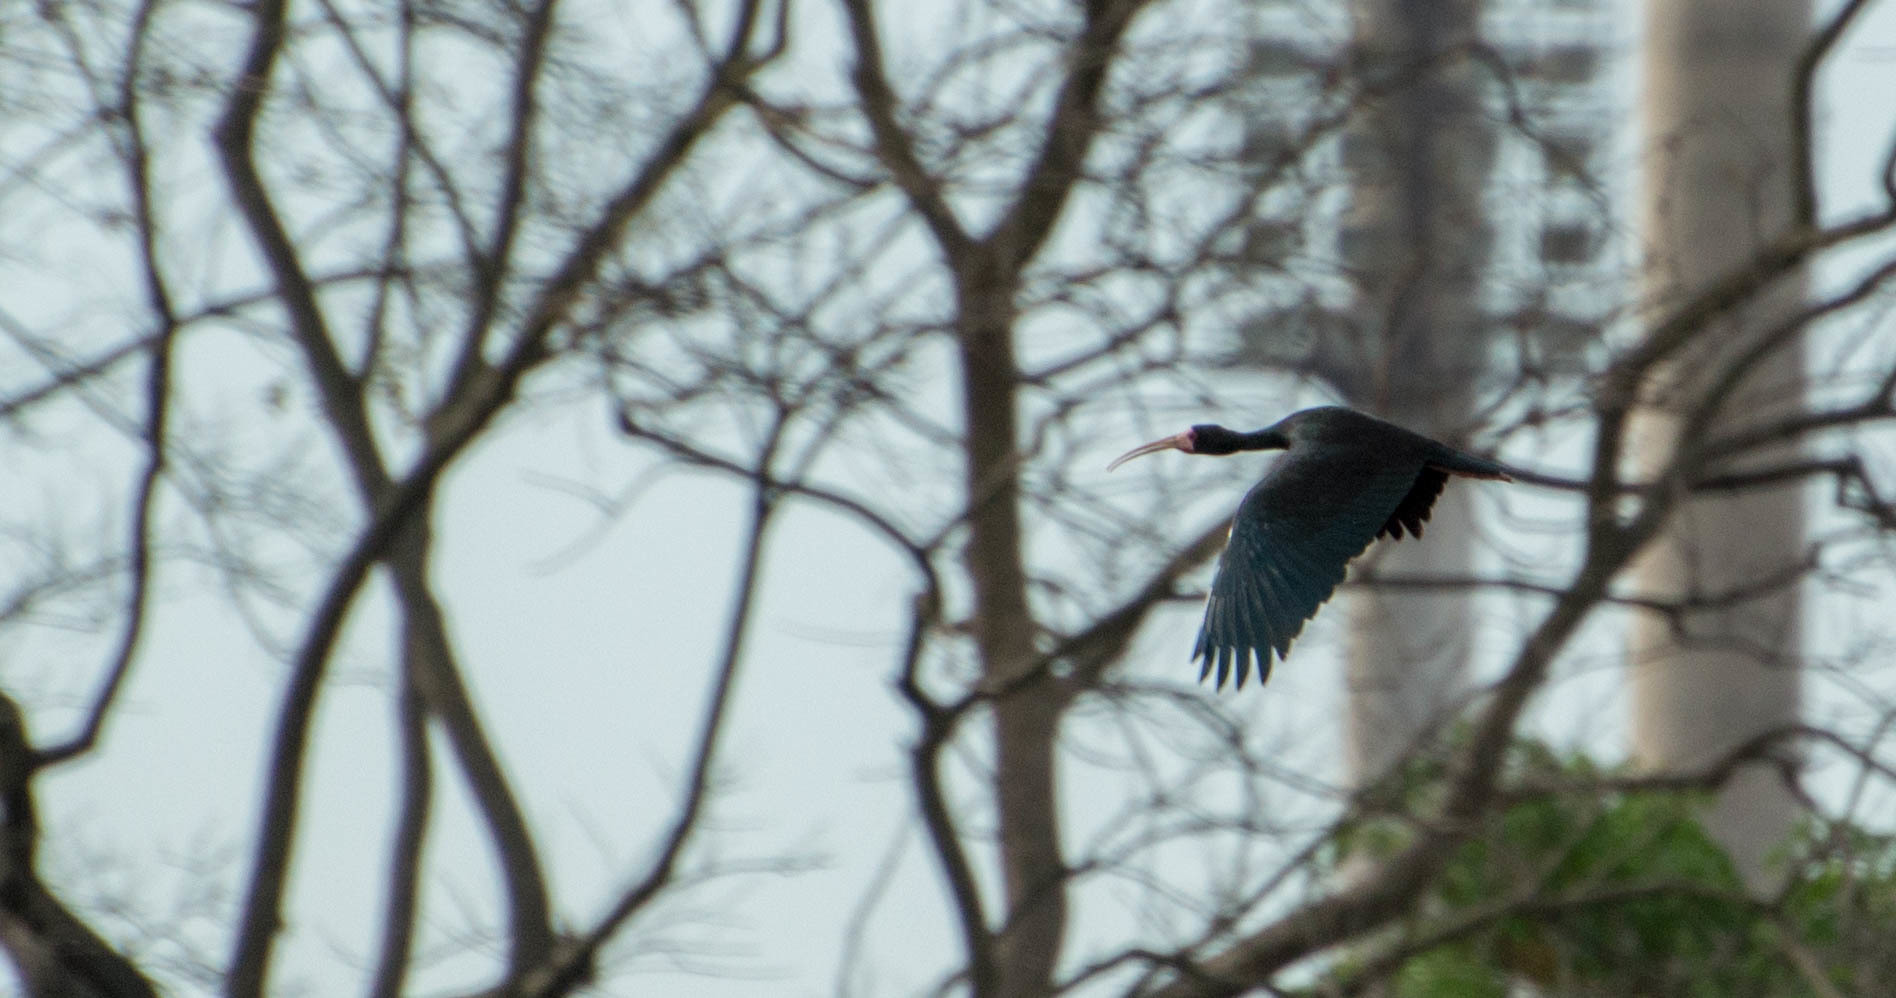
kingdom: Animalia
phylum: Chordata
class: Aves
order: Pelecaniformes
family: Threskiornithidae
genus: Phimosus
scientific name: Phimosus infuscatus
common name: Bare-faced ibis
